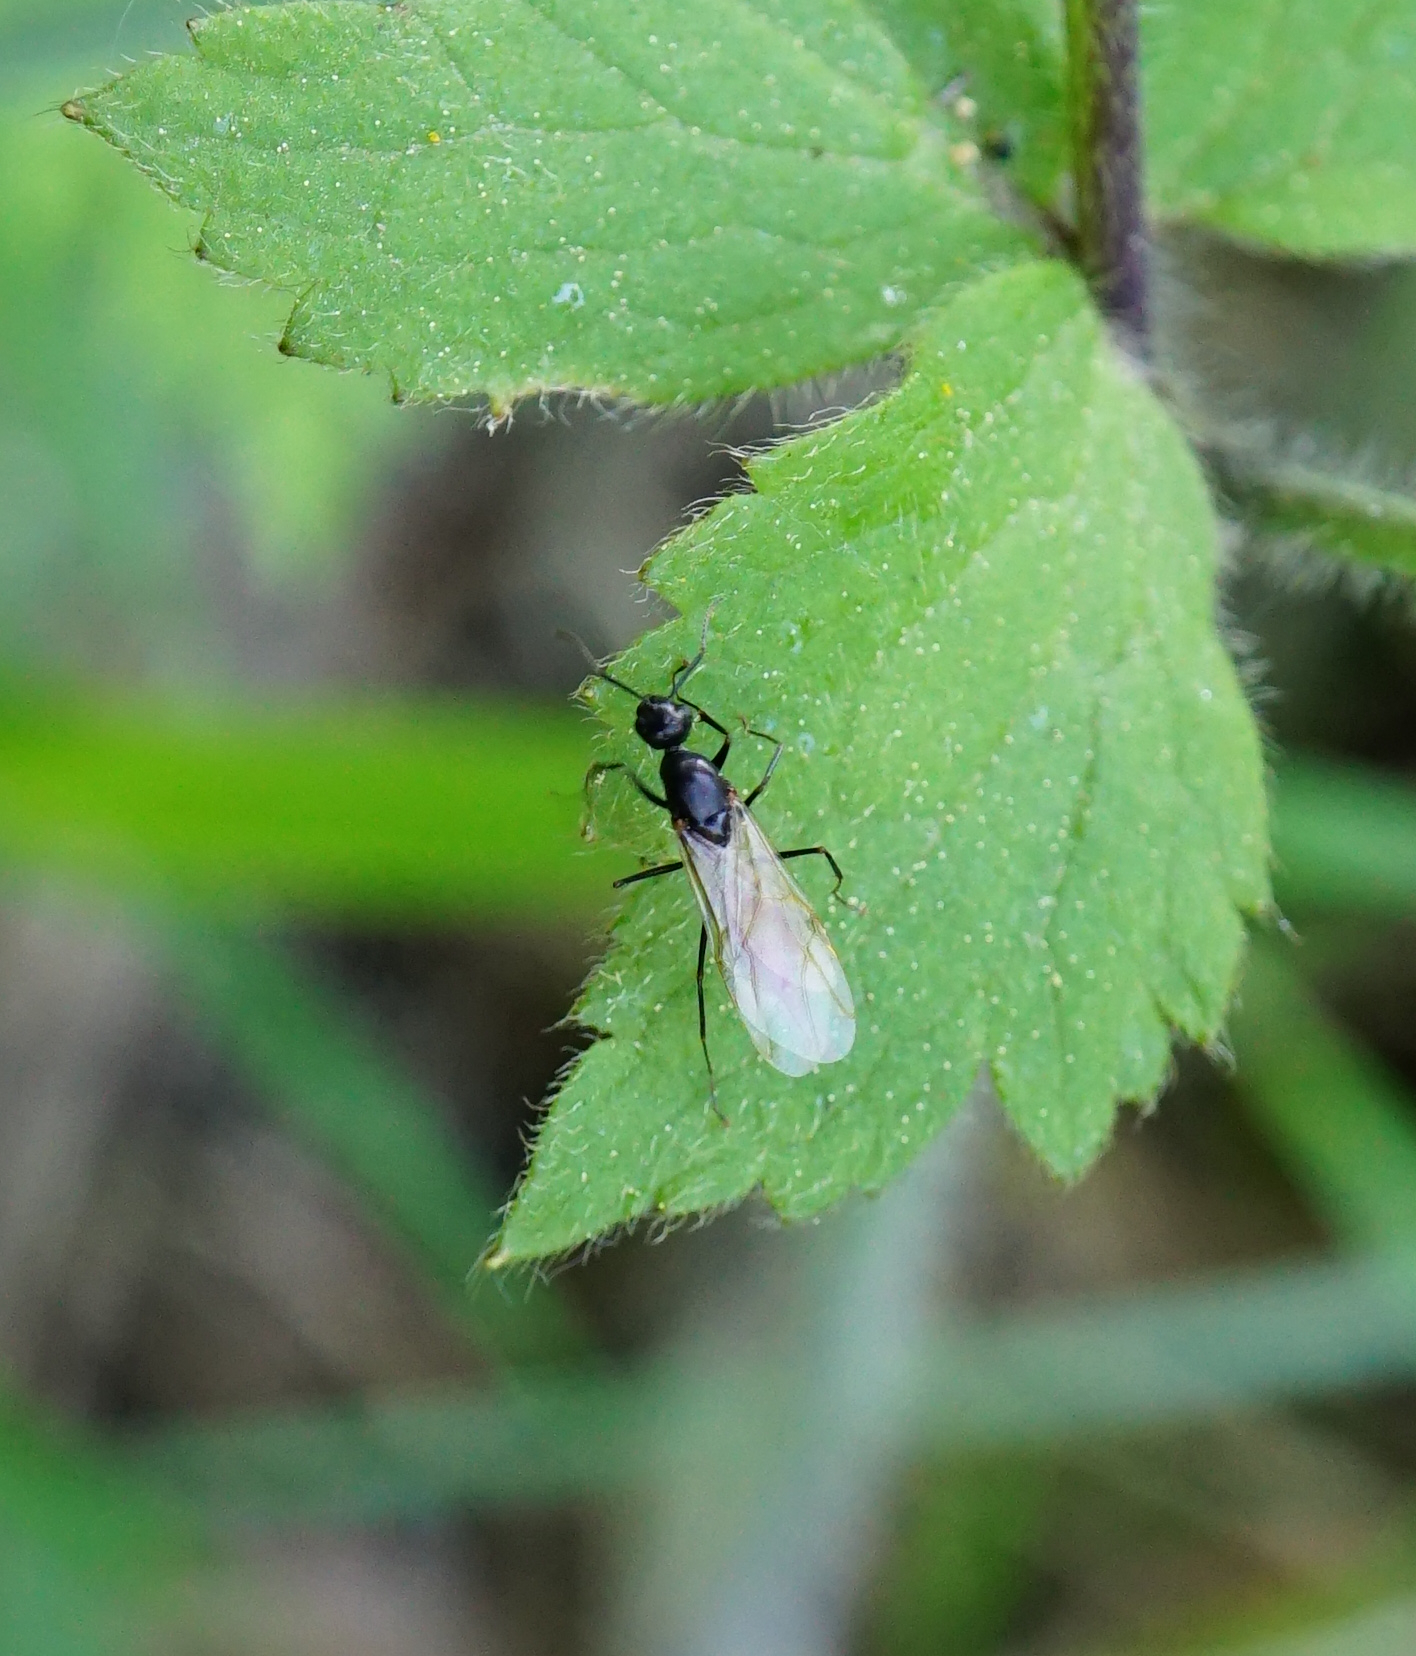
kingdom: Animalia
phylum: Arthropoda
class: Insecta
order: Hymenoptera
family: Formicidae
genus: Camponotus
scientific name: Camponotus
